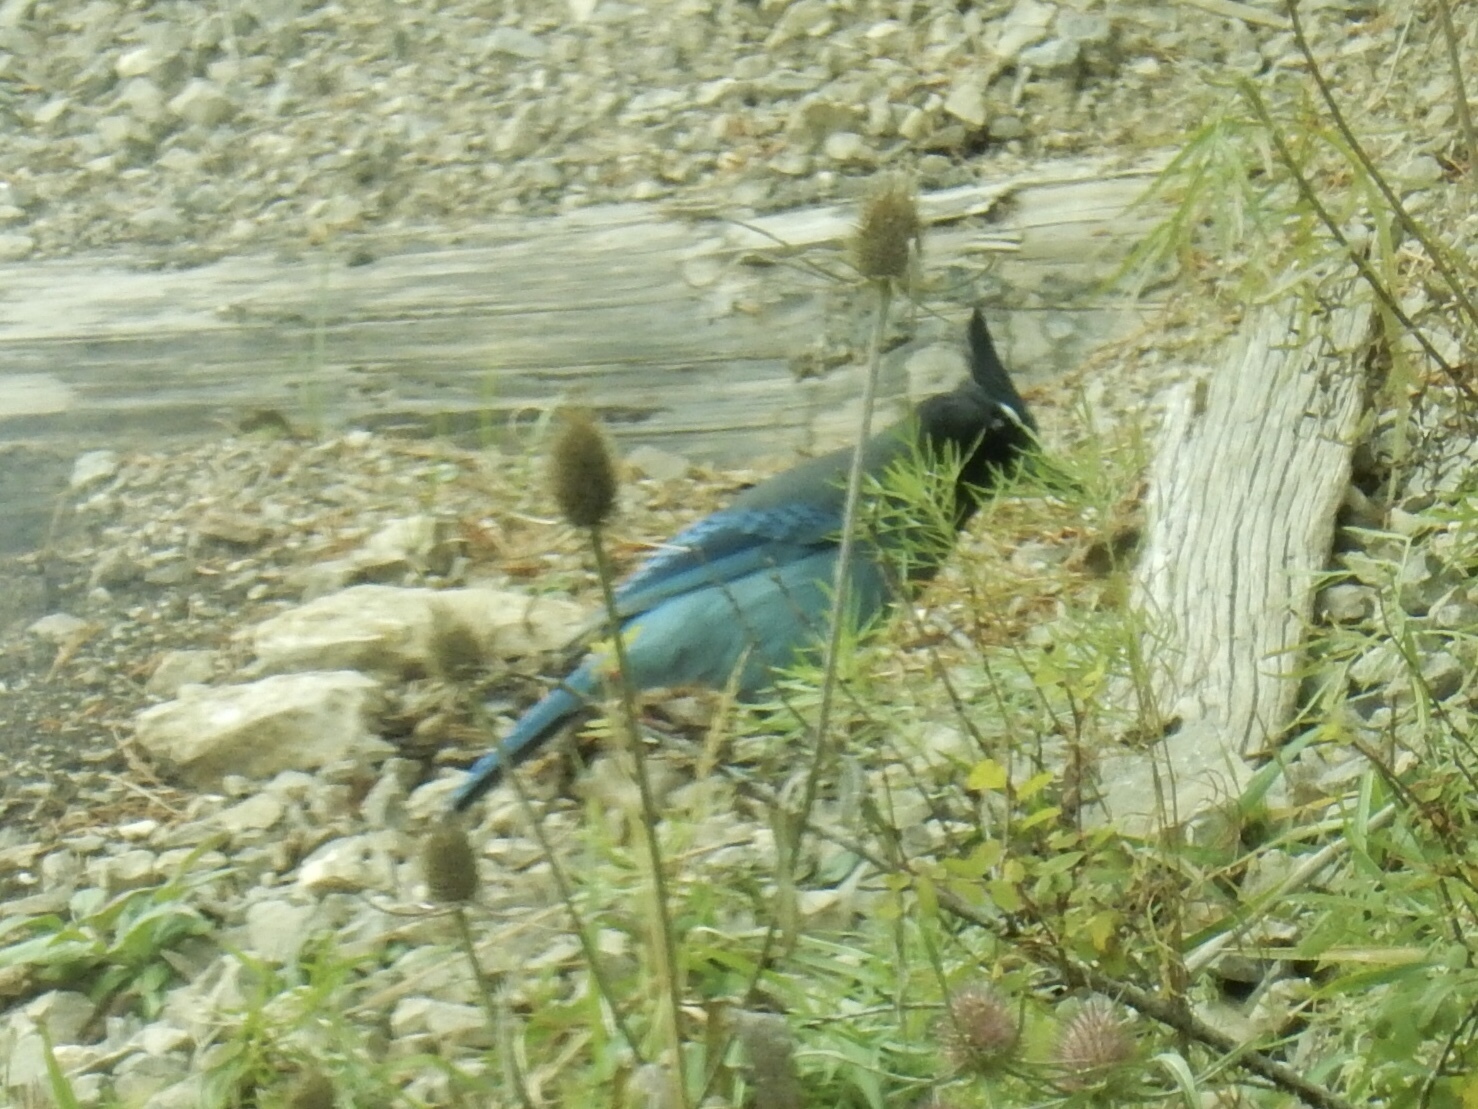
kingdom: Animalia
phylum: Chordata
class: Aves
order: Passeriformes
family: Corvidae
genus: Cyanocitta
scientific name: Cyanocitta stelleri
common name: Steller's jay
